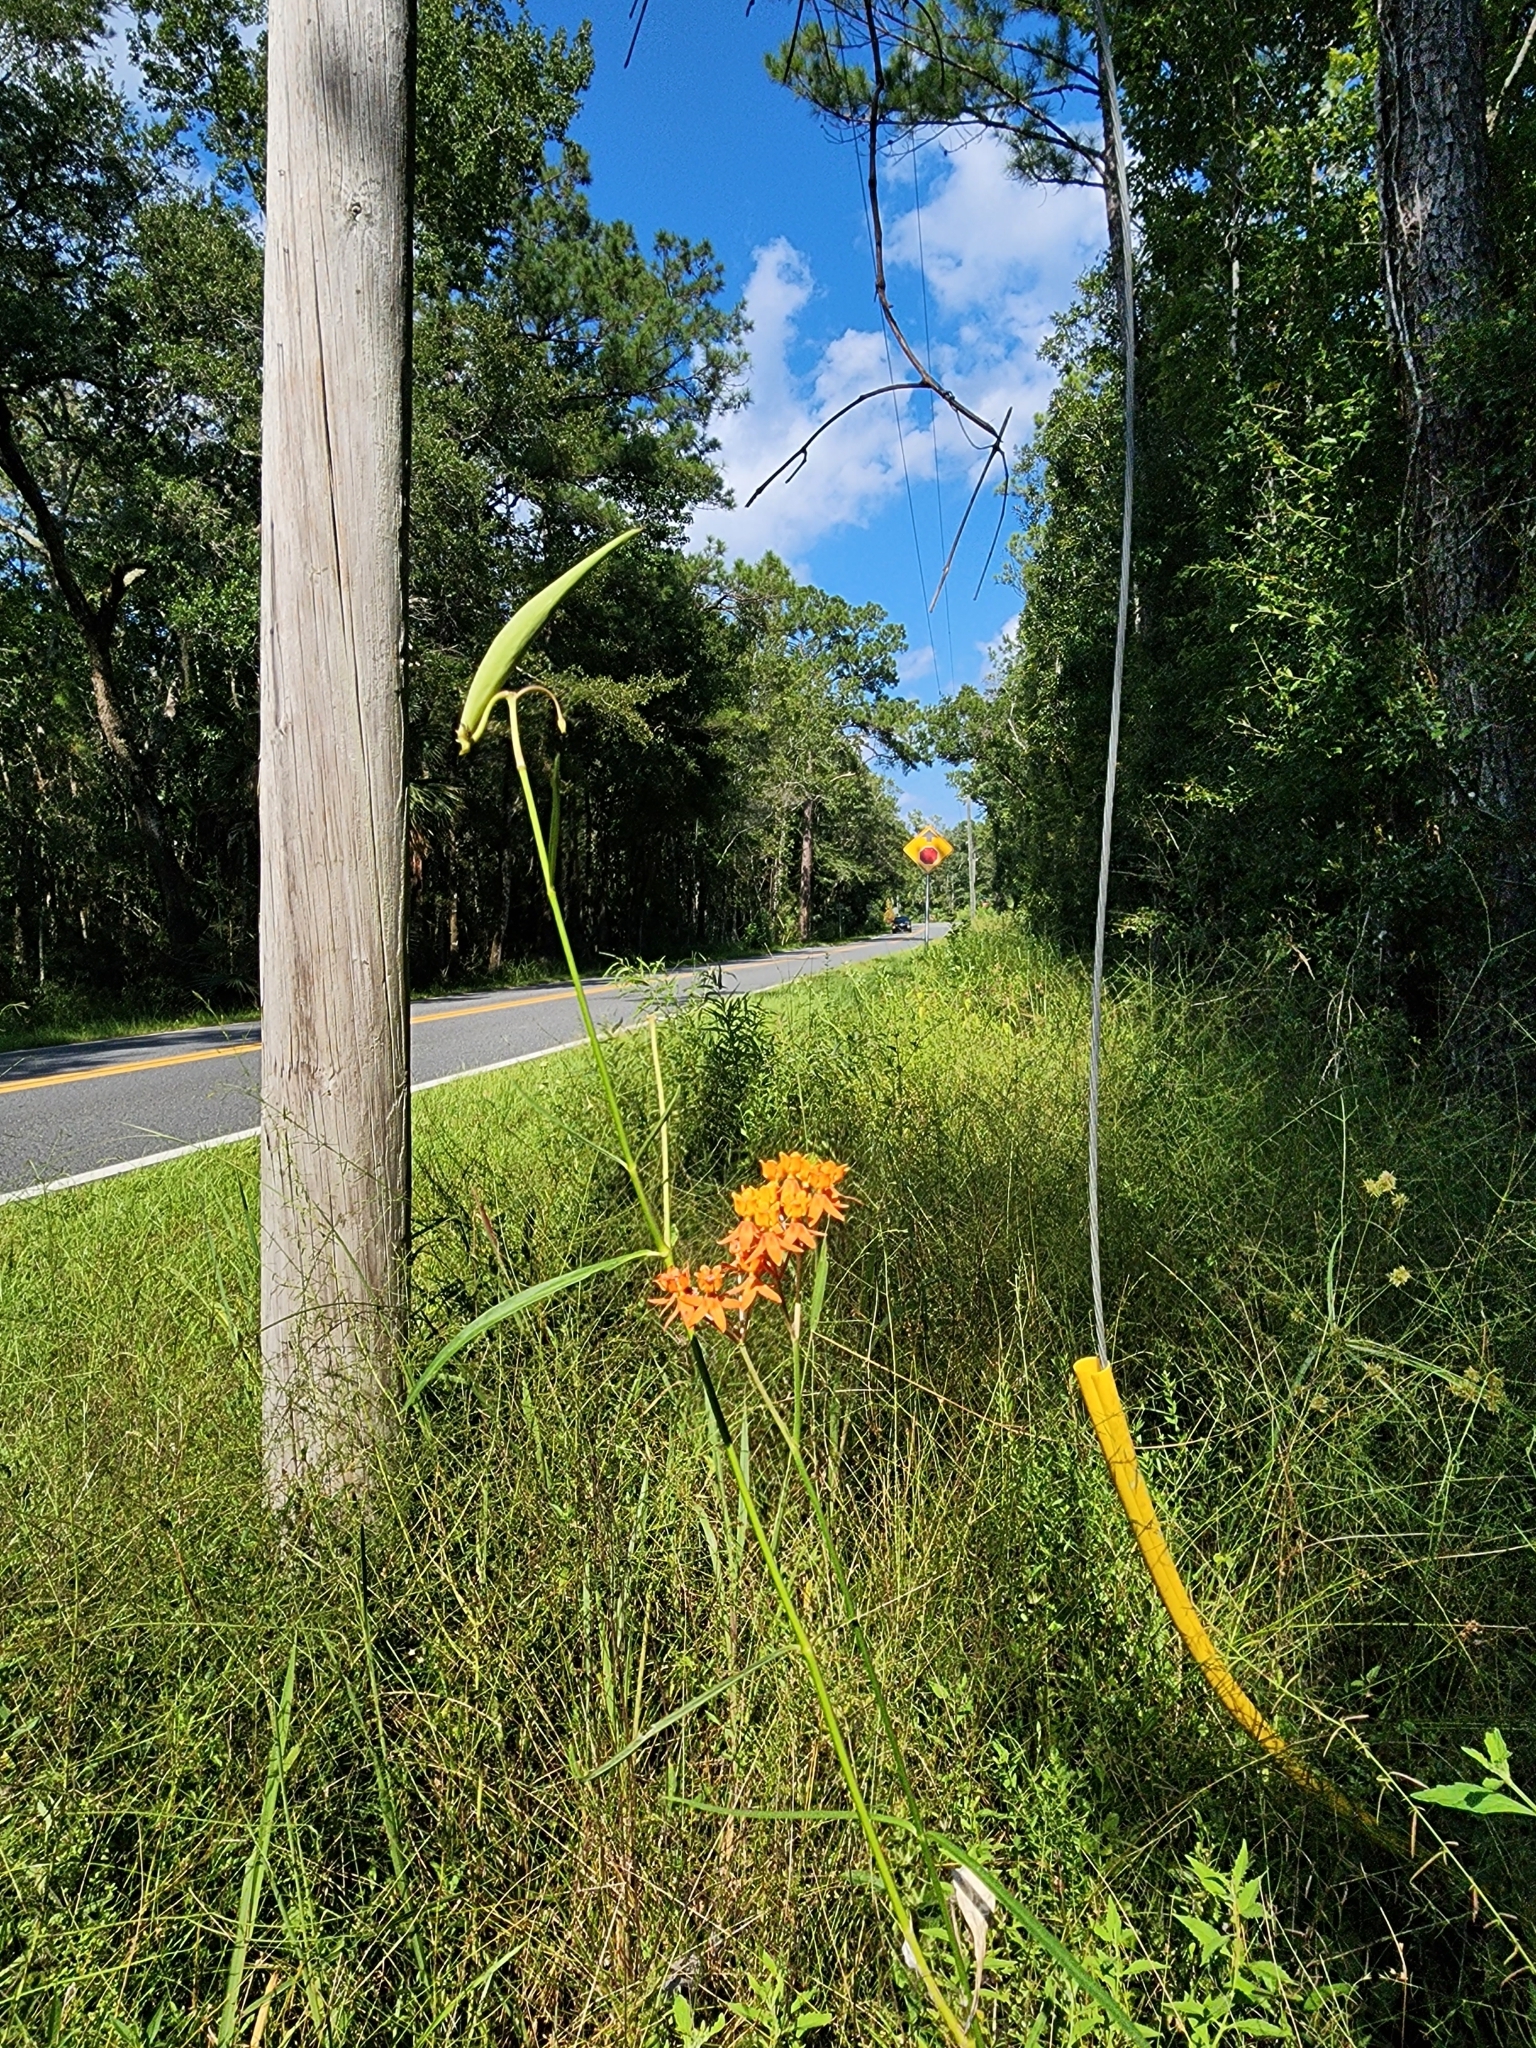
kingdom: Plantae
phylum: Tracheophyta
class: Magnoliopsida
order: Gentianales
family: Apocynaceae
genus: Asclepias
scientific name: Asclepias lanceolata
